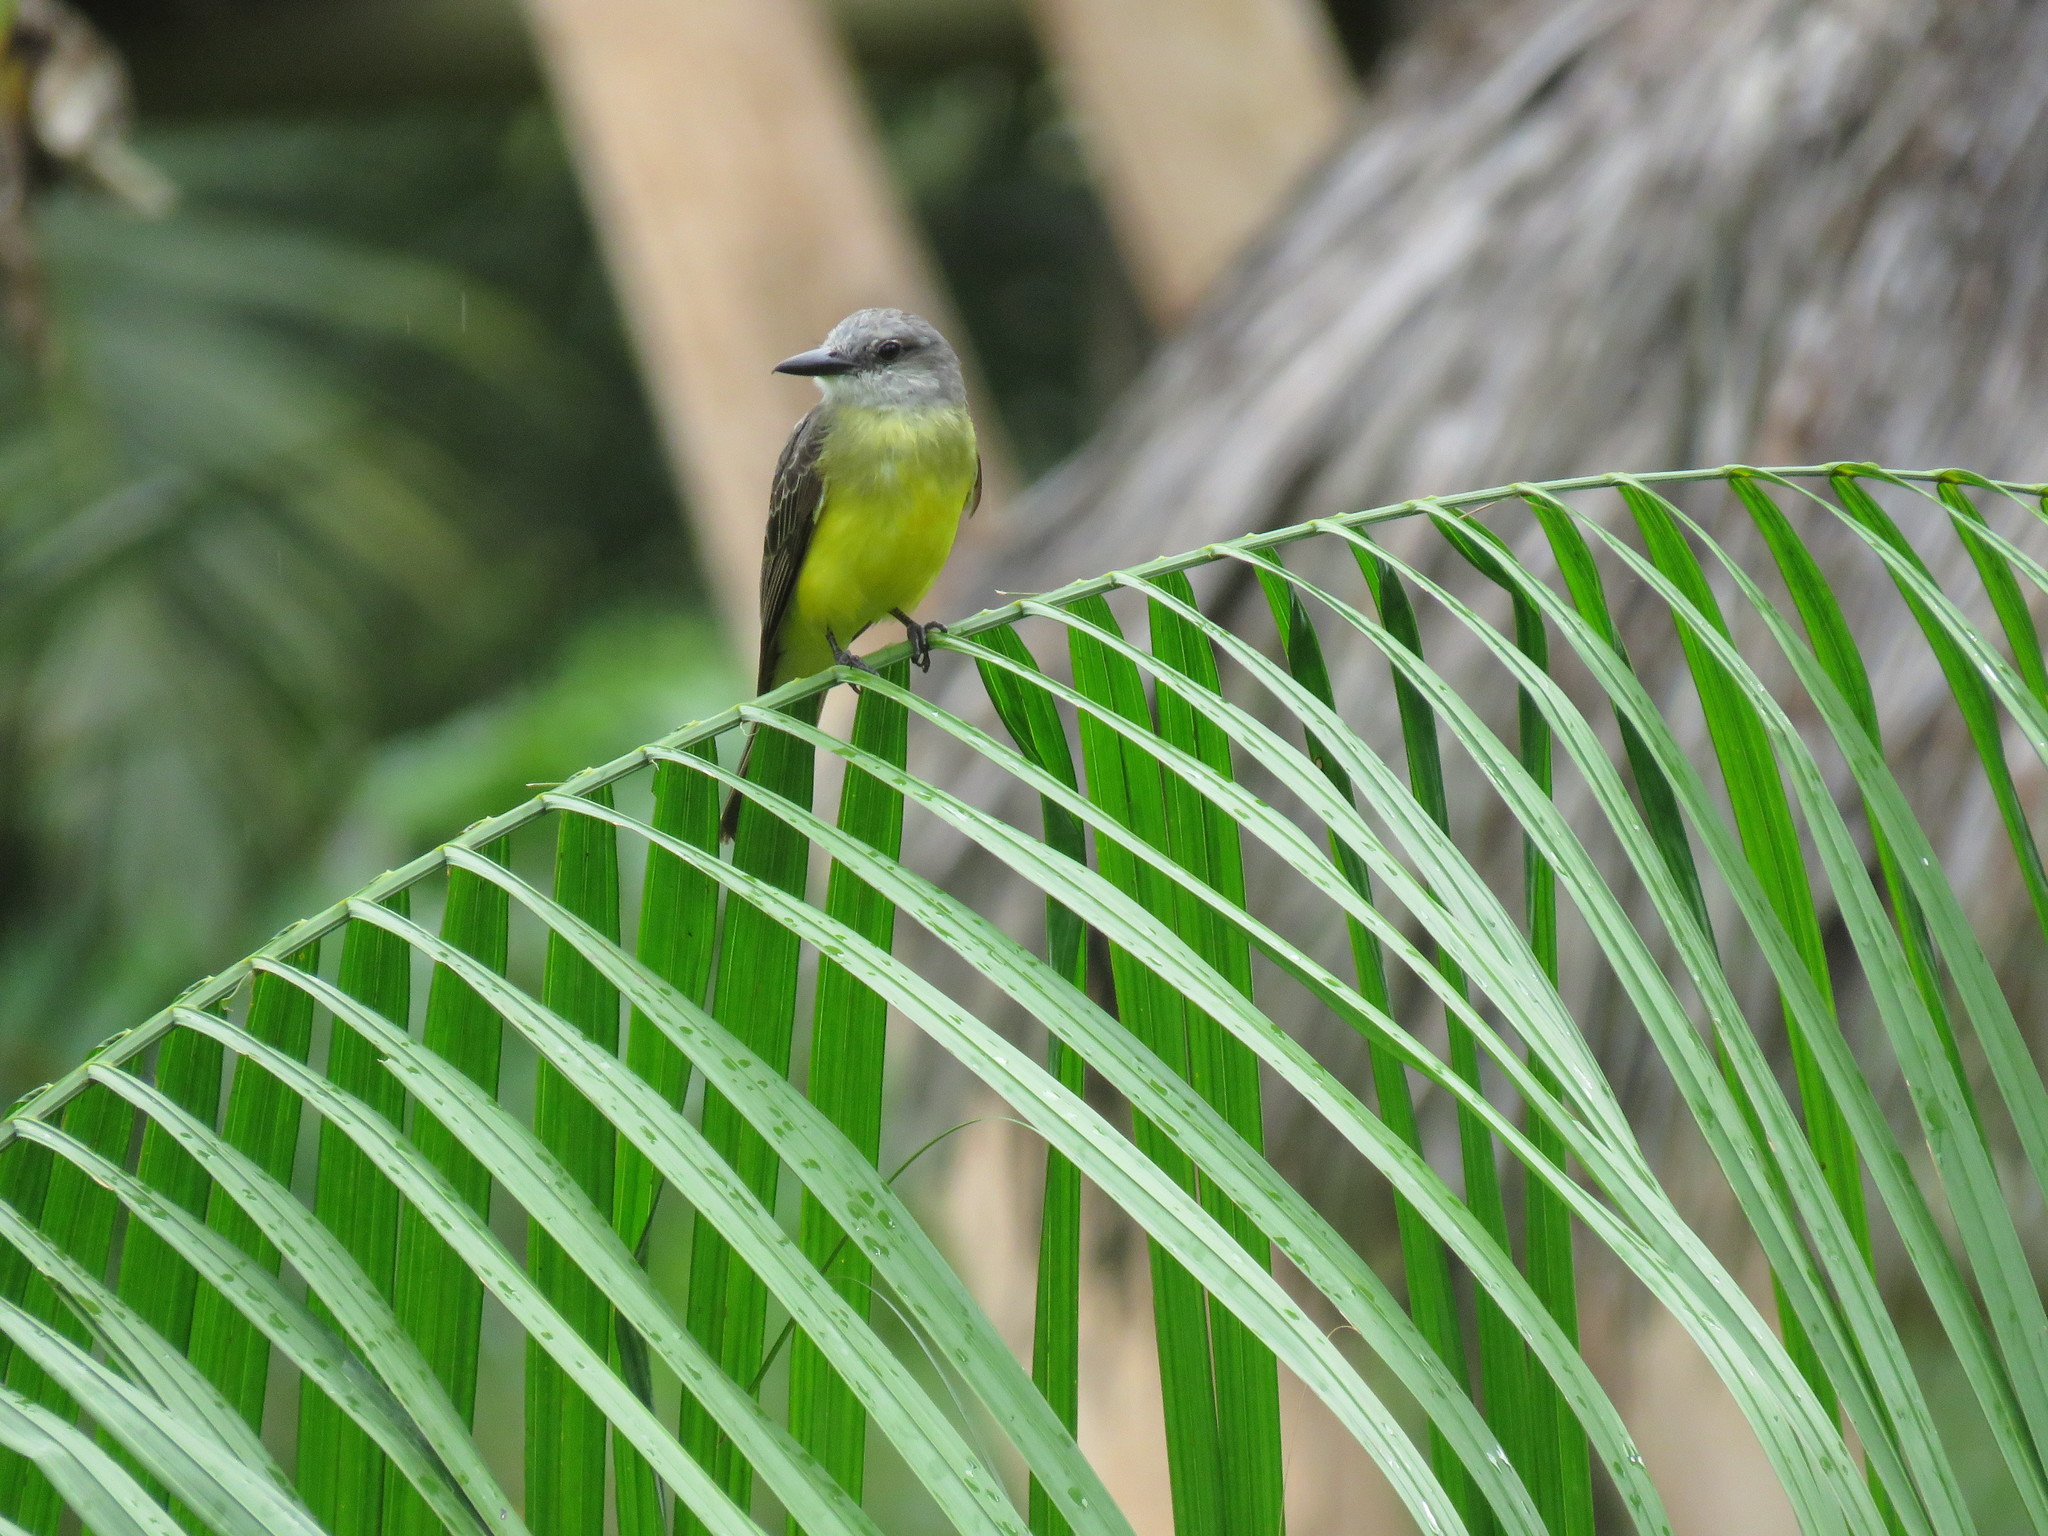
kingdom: Animalia
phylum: Chordata
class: Aves
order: Passeriformes
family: Tyrannidae
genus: Tyrannus
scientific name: Tyrannus melancholicus
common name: Tropical kingbird
